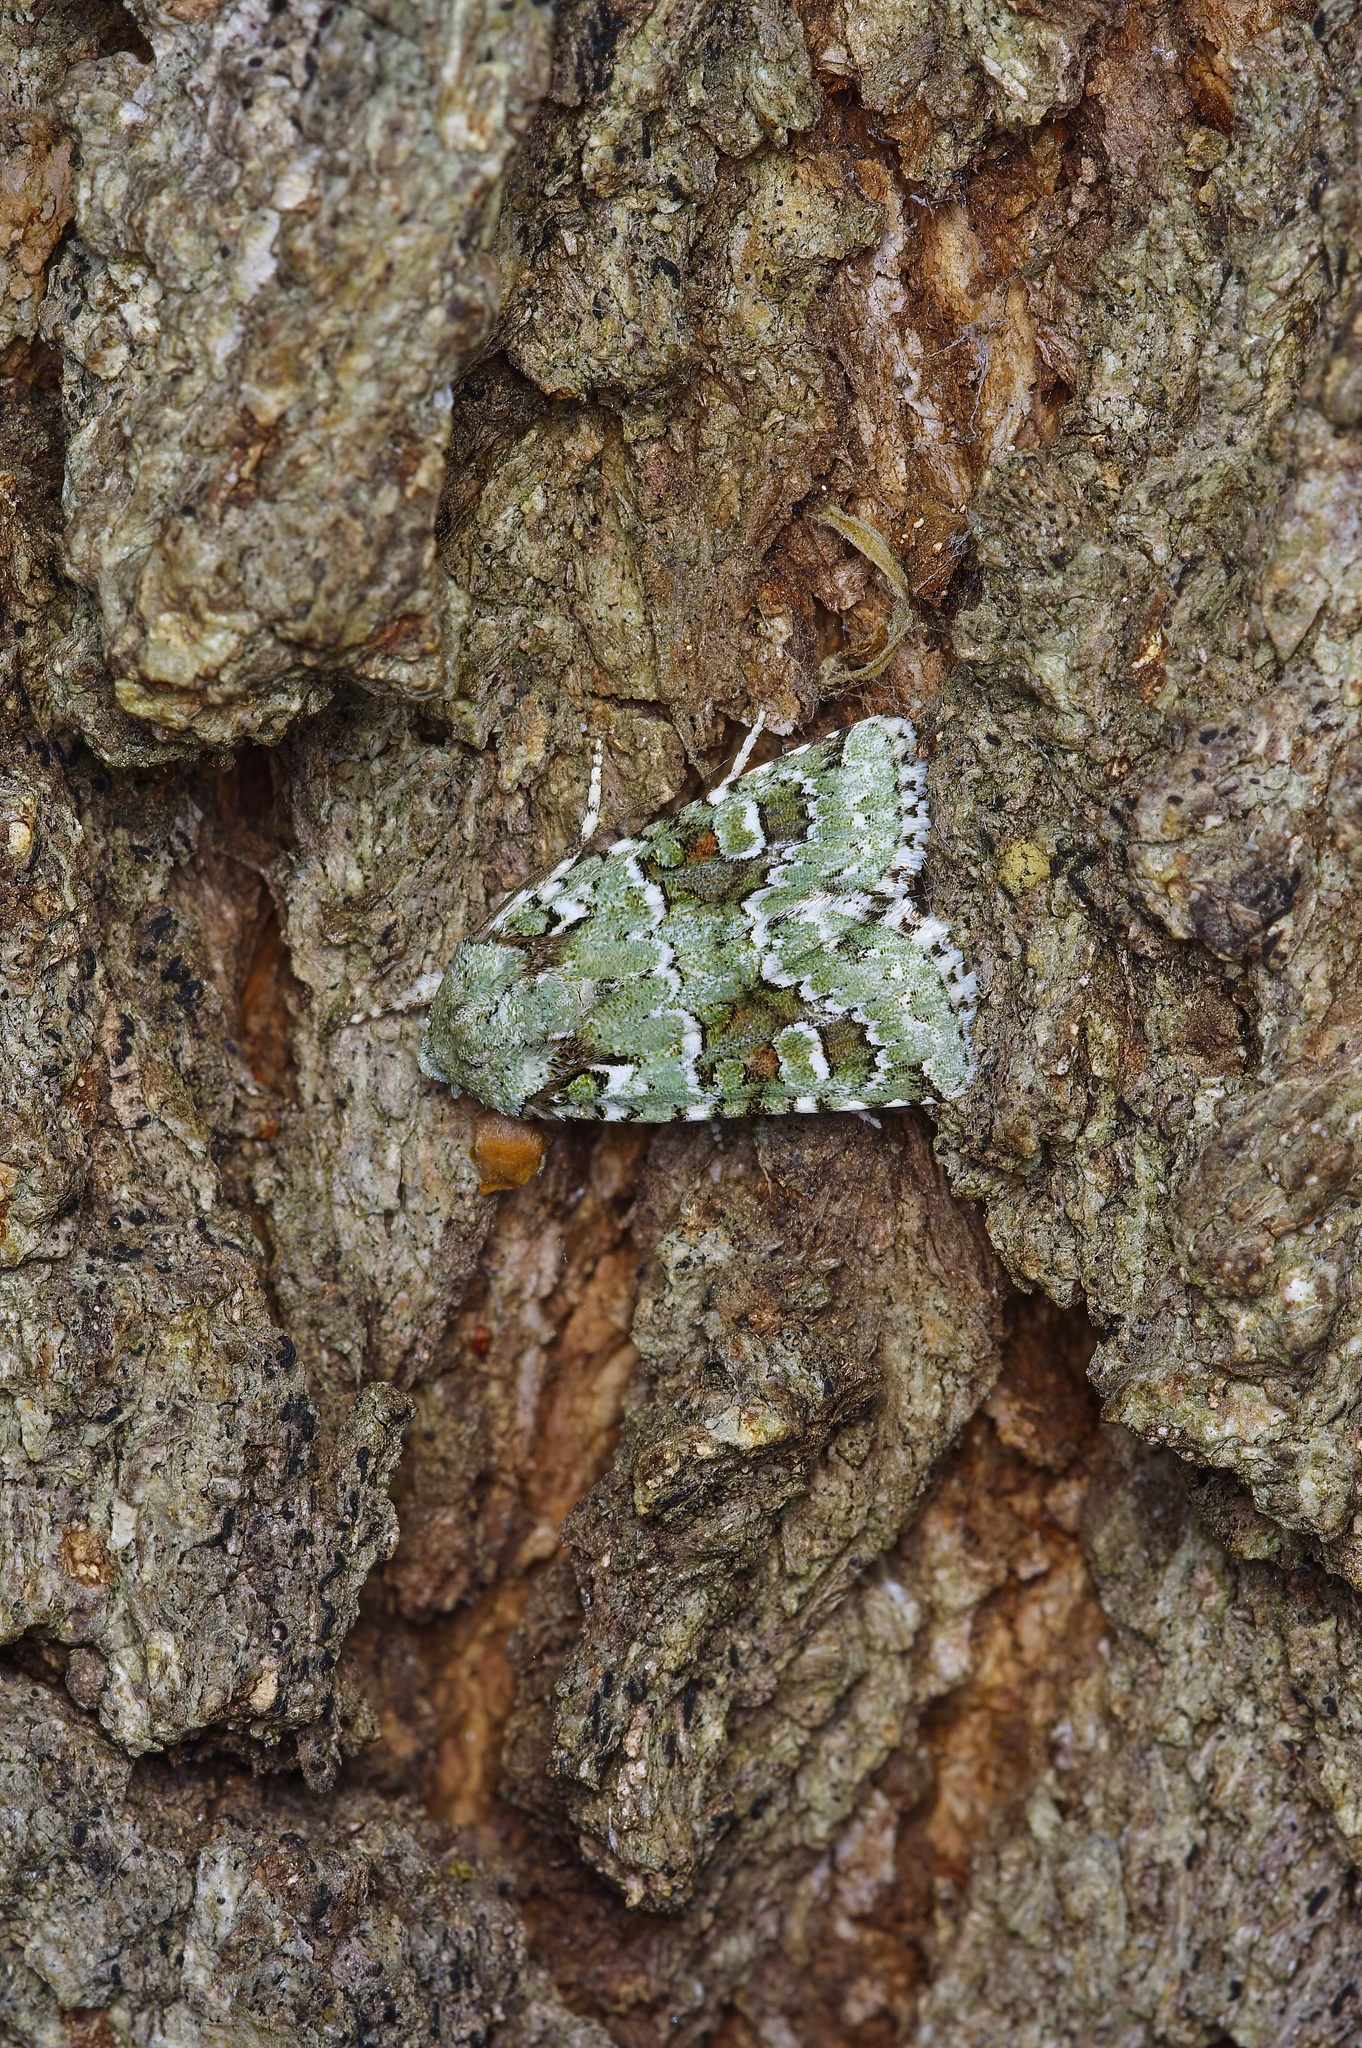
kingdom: Animalia
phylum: Arthropoda
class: Insecta
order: Lepidoptera
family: Noctuidae
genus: Lacinipolia
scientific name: Lacinipolia laudabilis
